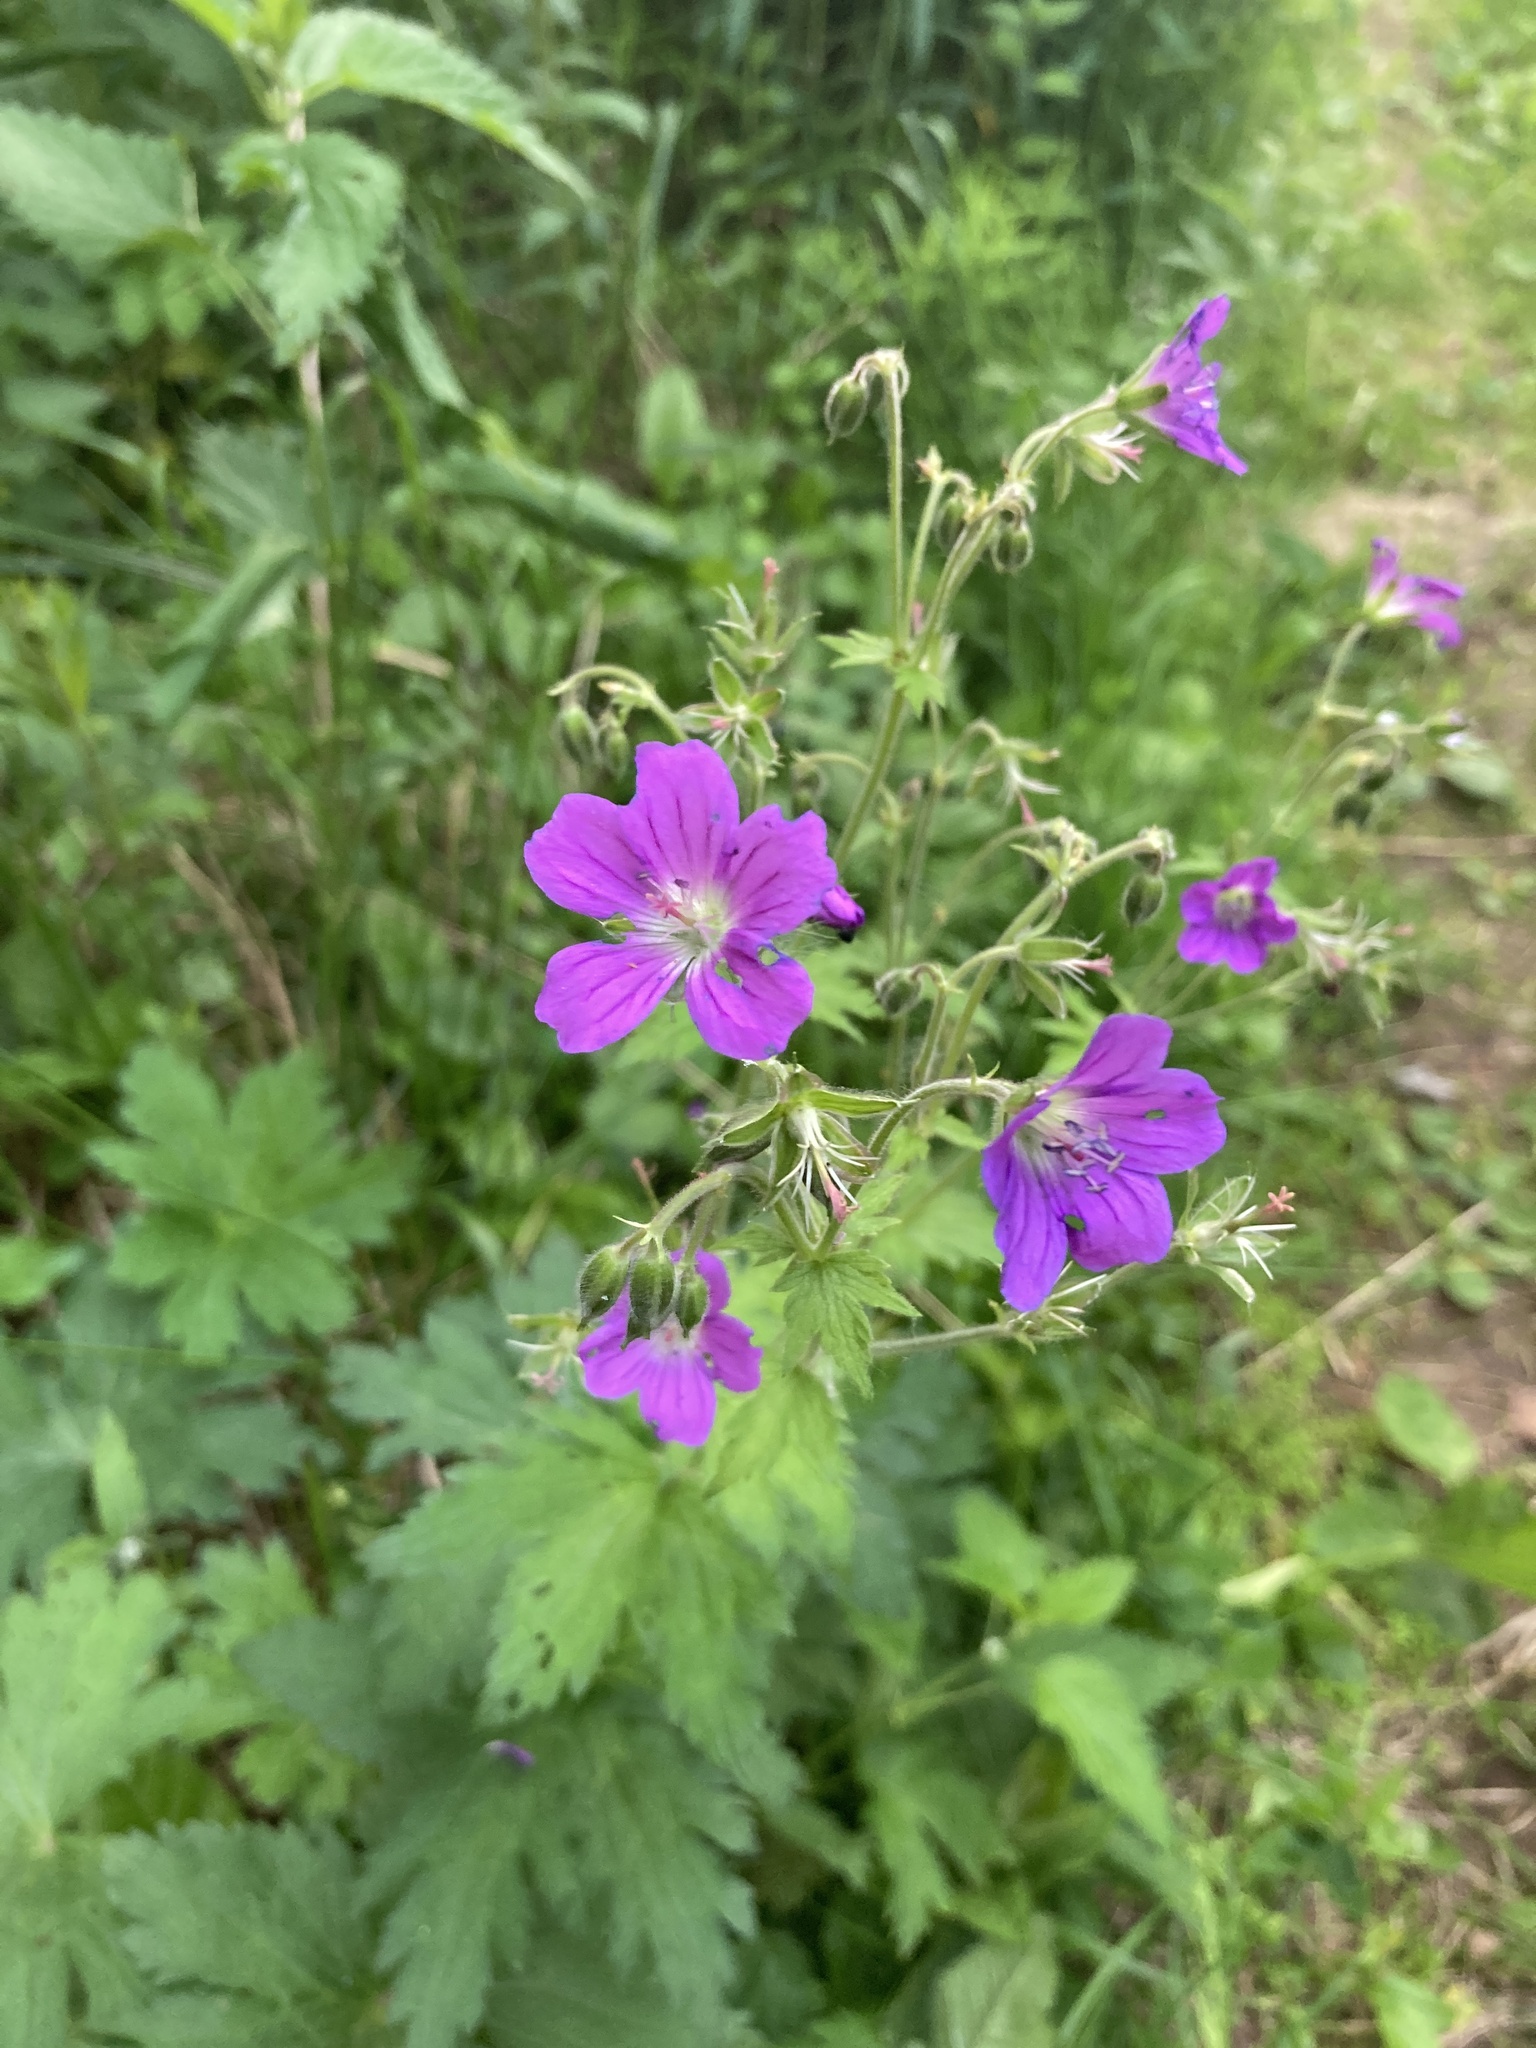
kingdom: Plantae
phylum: Tracheophyta
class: Magnoliopsida
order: Geraniales
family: Geraniaceae
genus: Geranium
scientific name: Geranium sylvaticum
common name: Wood crane's-bill
